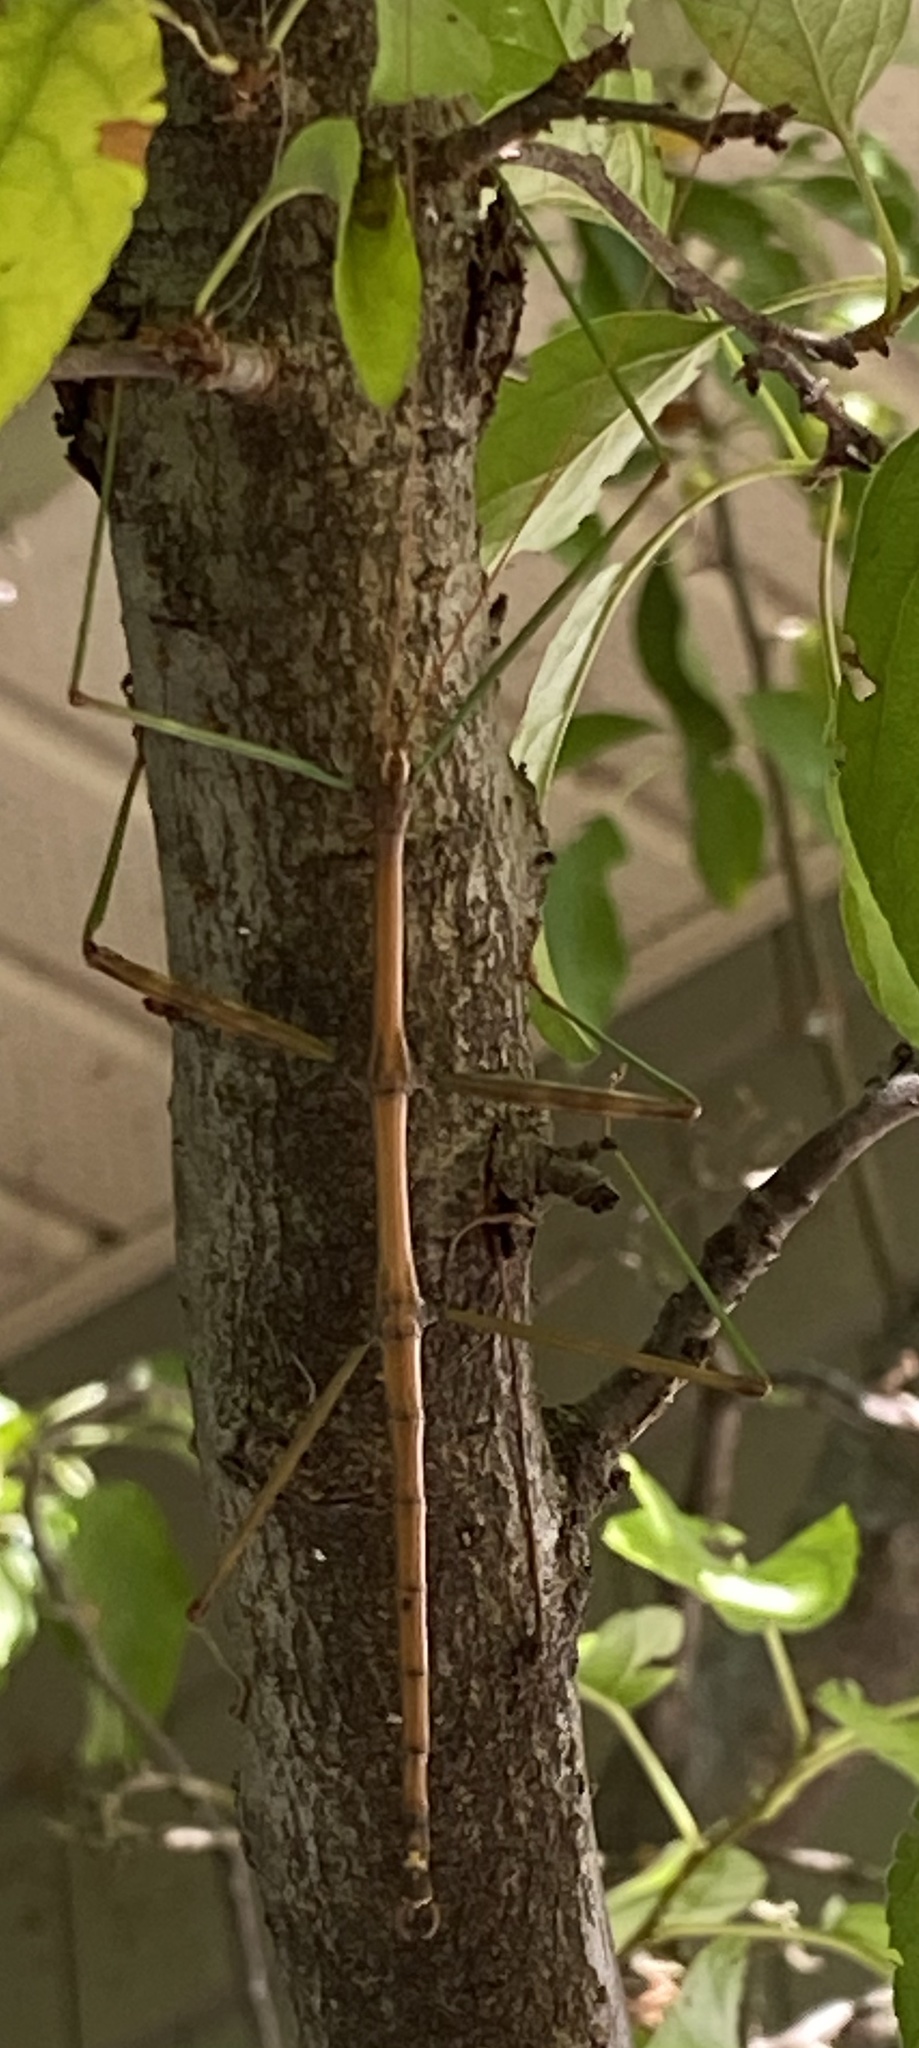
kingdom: Animalia
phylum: Arthropoda
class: Insecta
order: Phasmida
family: Diapheromeridae
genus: Diapheromera
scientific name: Diapheromera femorata
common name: Common american walkingstick
